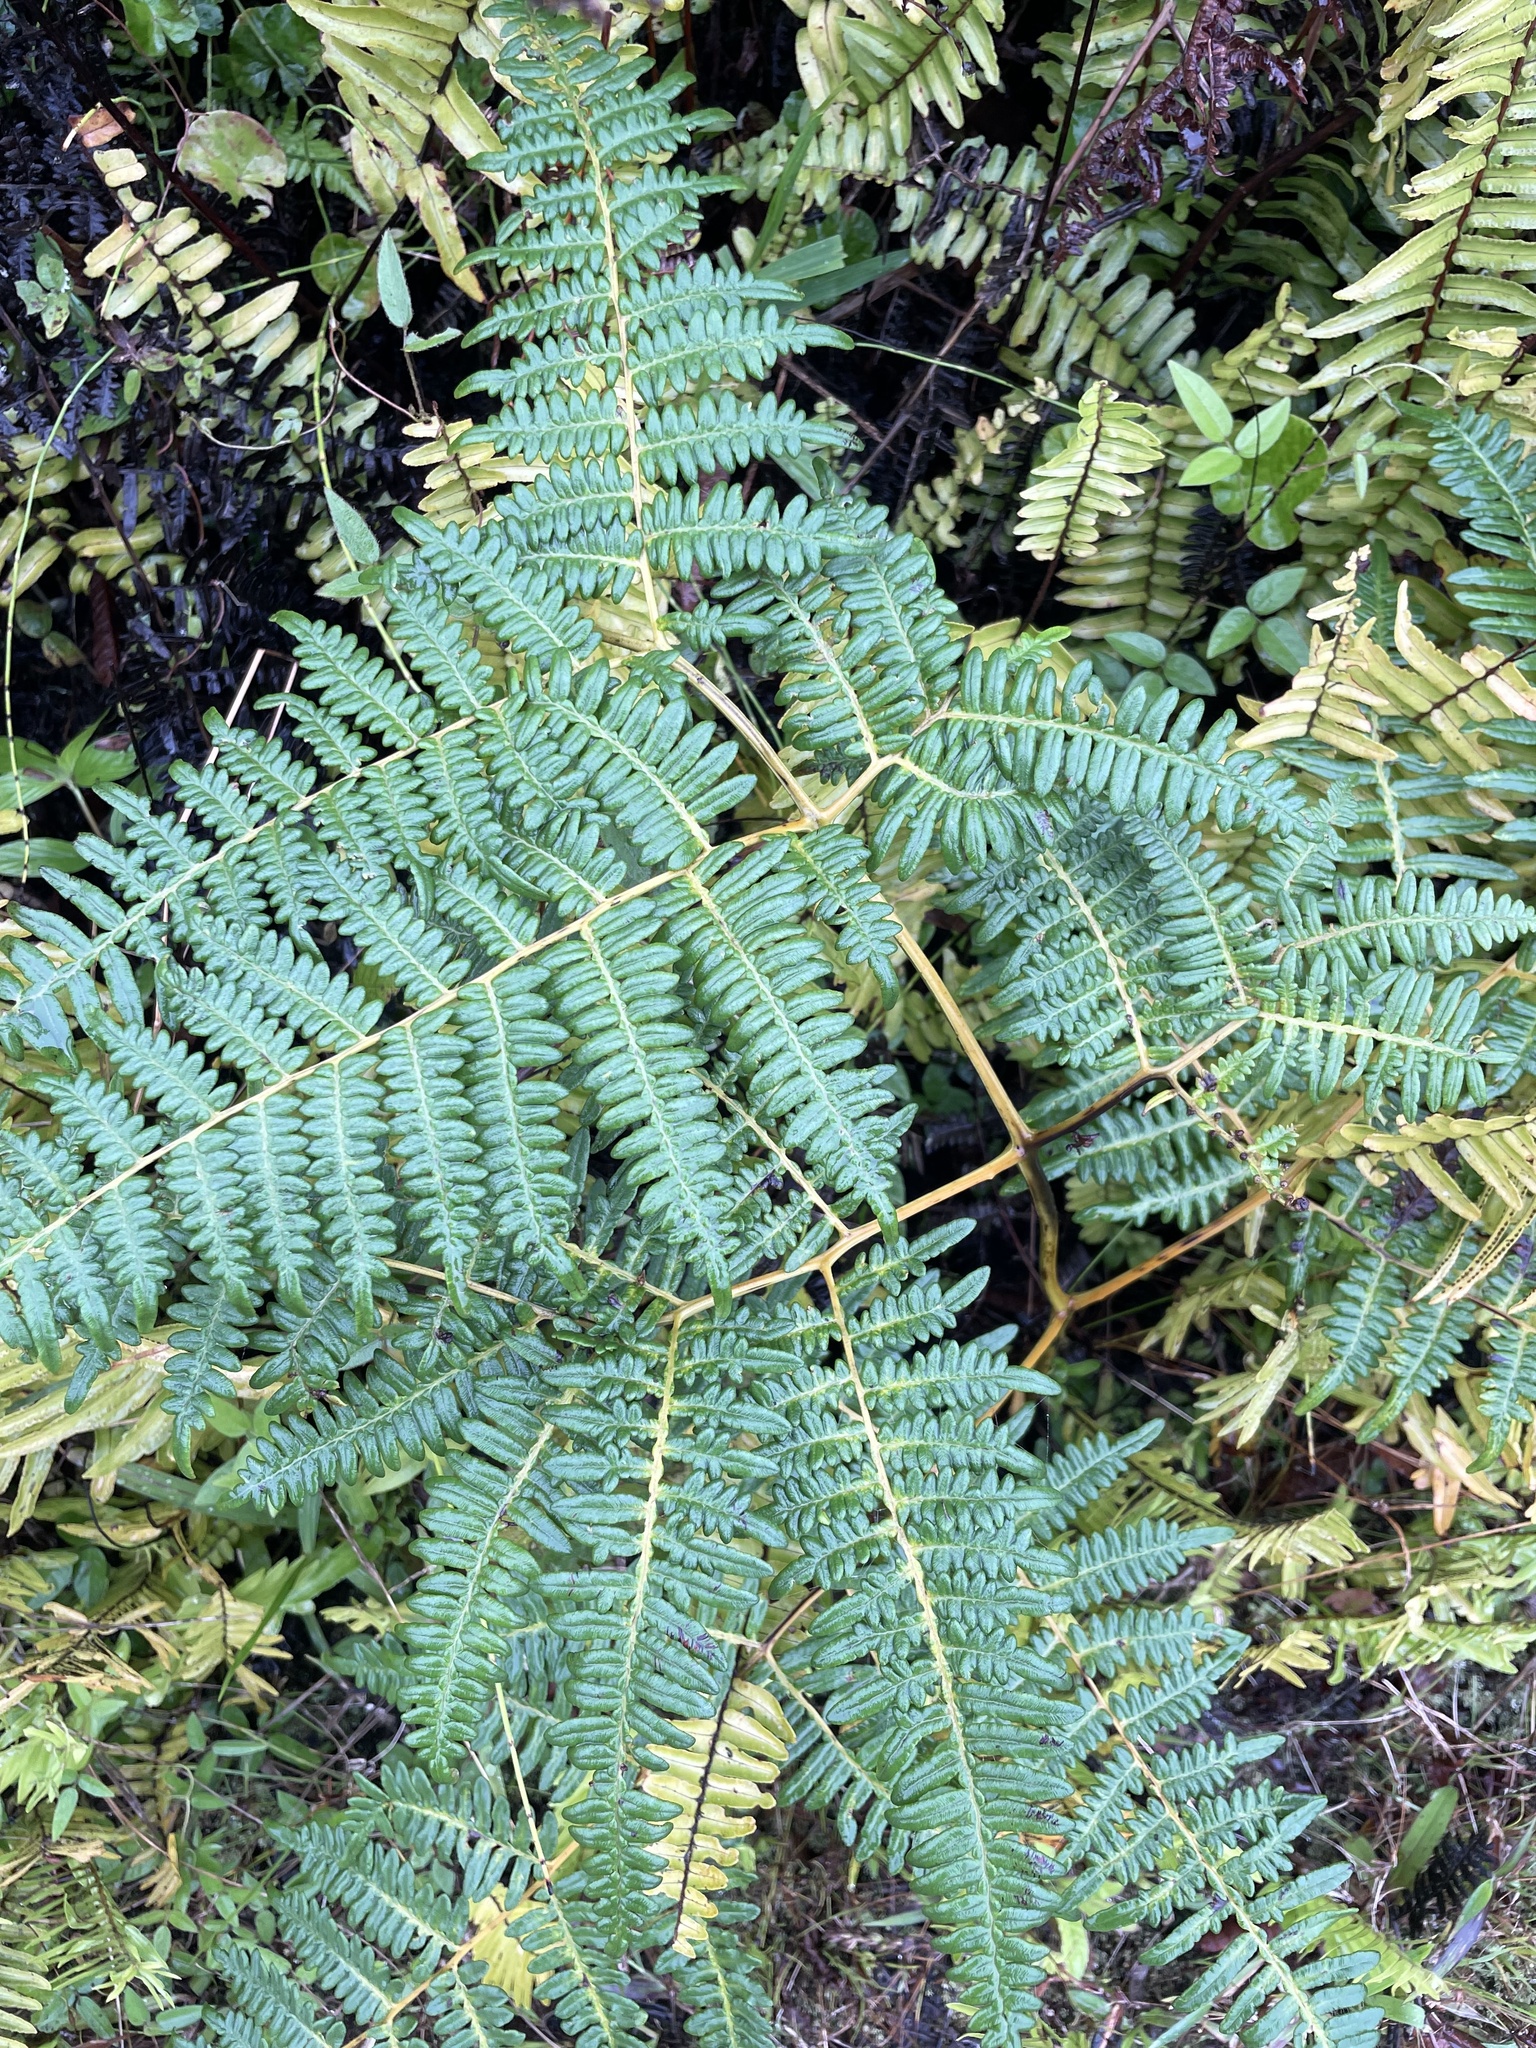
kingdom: Plantae
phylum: Tracheophyta
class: Polypodiopsida
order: Polypodiales
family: Dennstaedtiaceae
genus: Pteridium
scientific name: Pteridium esculentum
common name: Bracken fern
